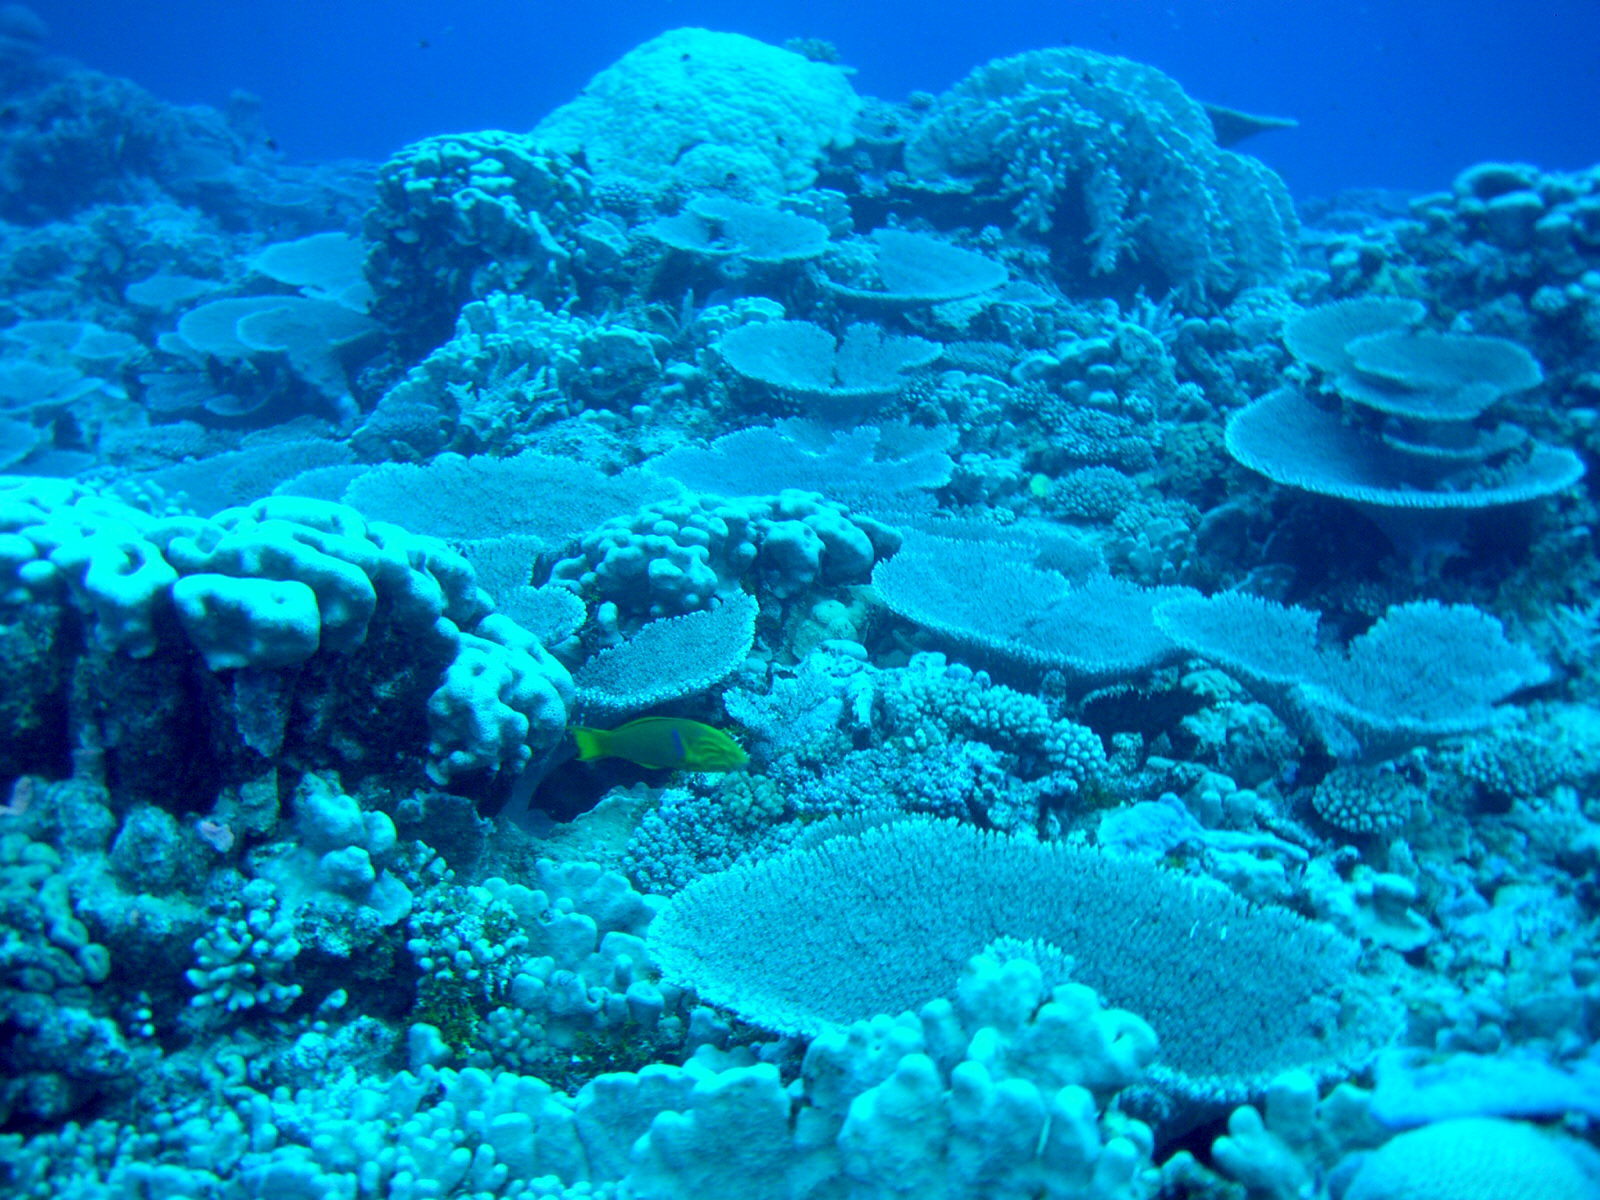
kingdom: Animalia
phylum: Chordata
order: Perciformes
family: Labridae
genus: Thalassoma
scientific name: Thalassoma lutescens
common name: Green moon wrasse
